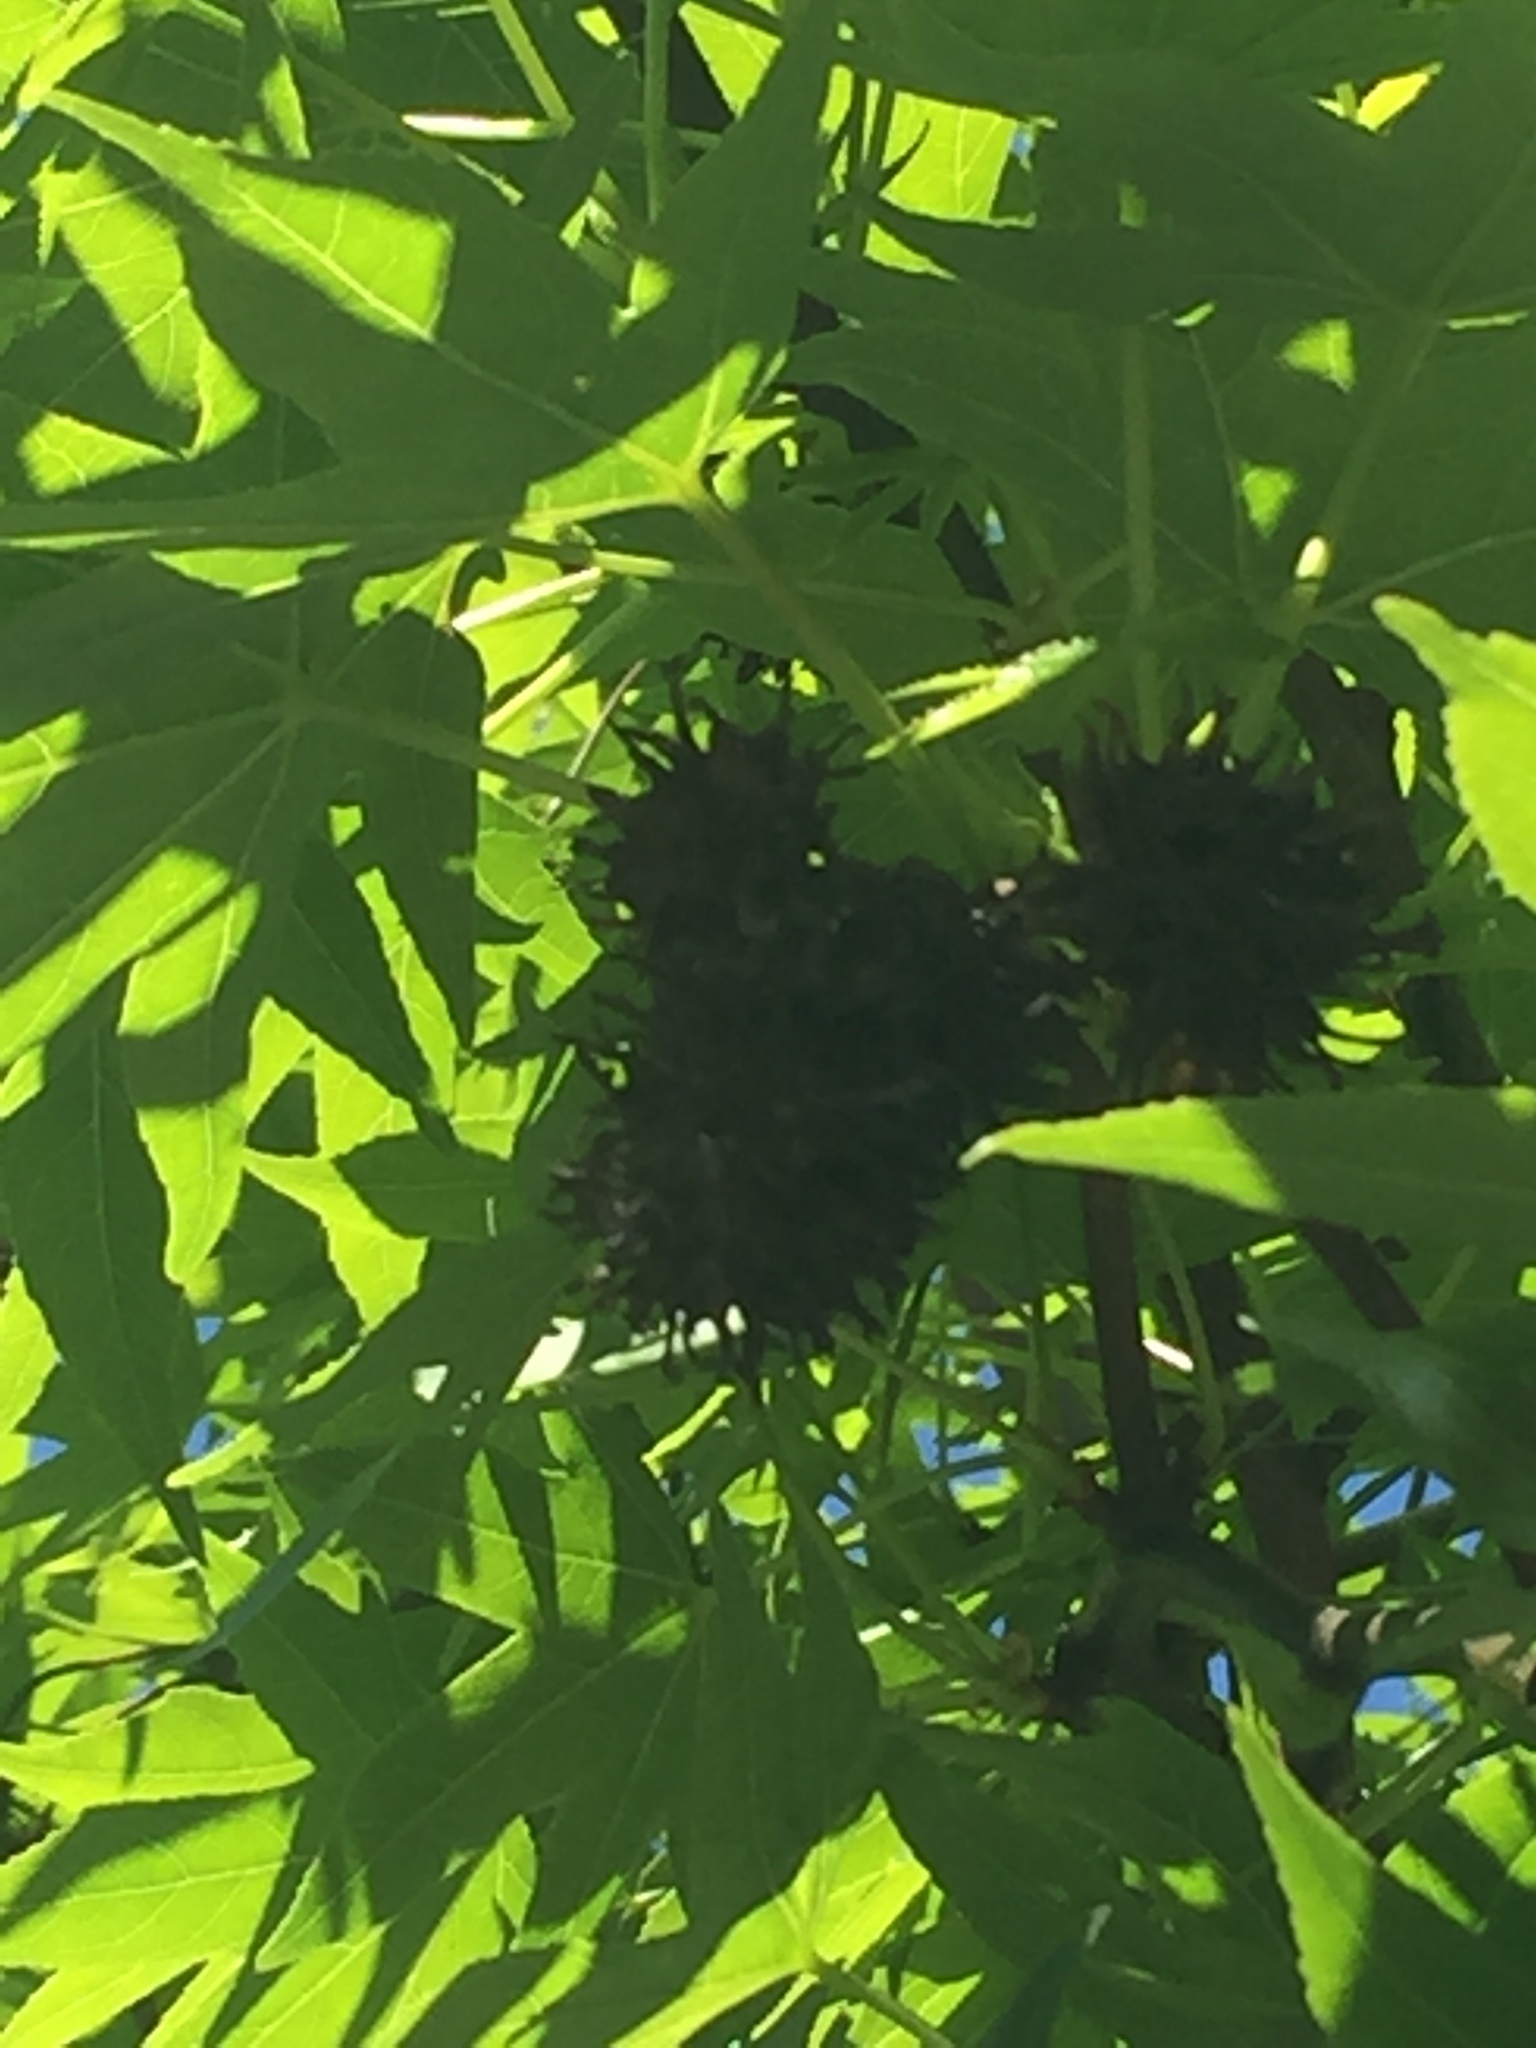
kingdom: Plantae
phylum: Tracheophyta
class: Magnoliopsida
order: Saxifragales
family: Altingiaceae
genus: Liquidambar
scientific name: Liquidambar styraciflua
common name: Sweet gum
